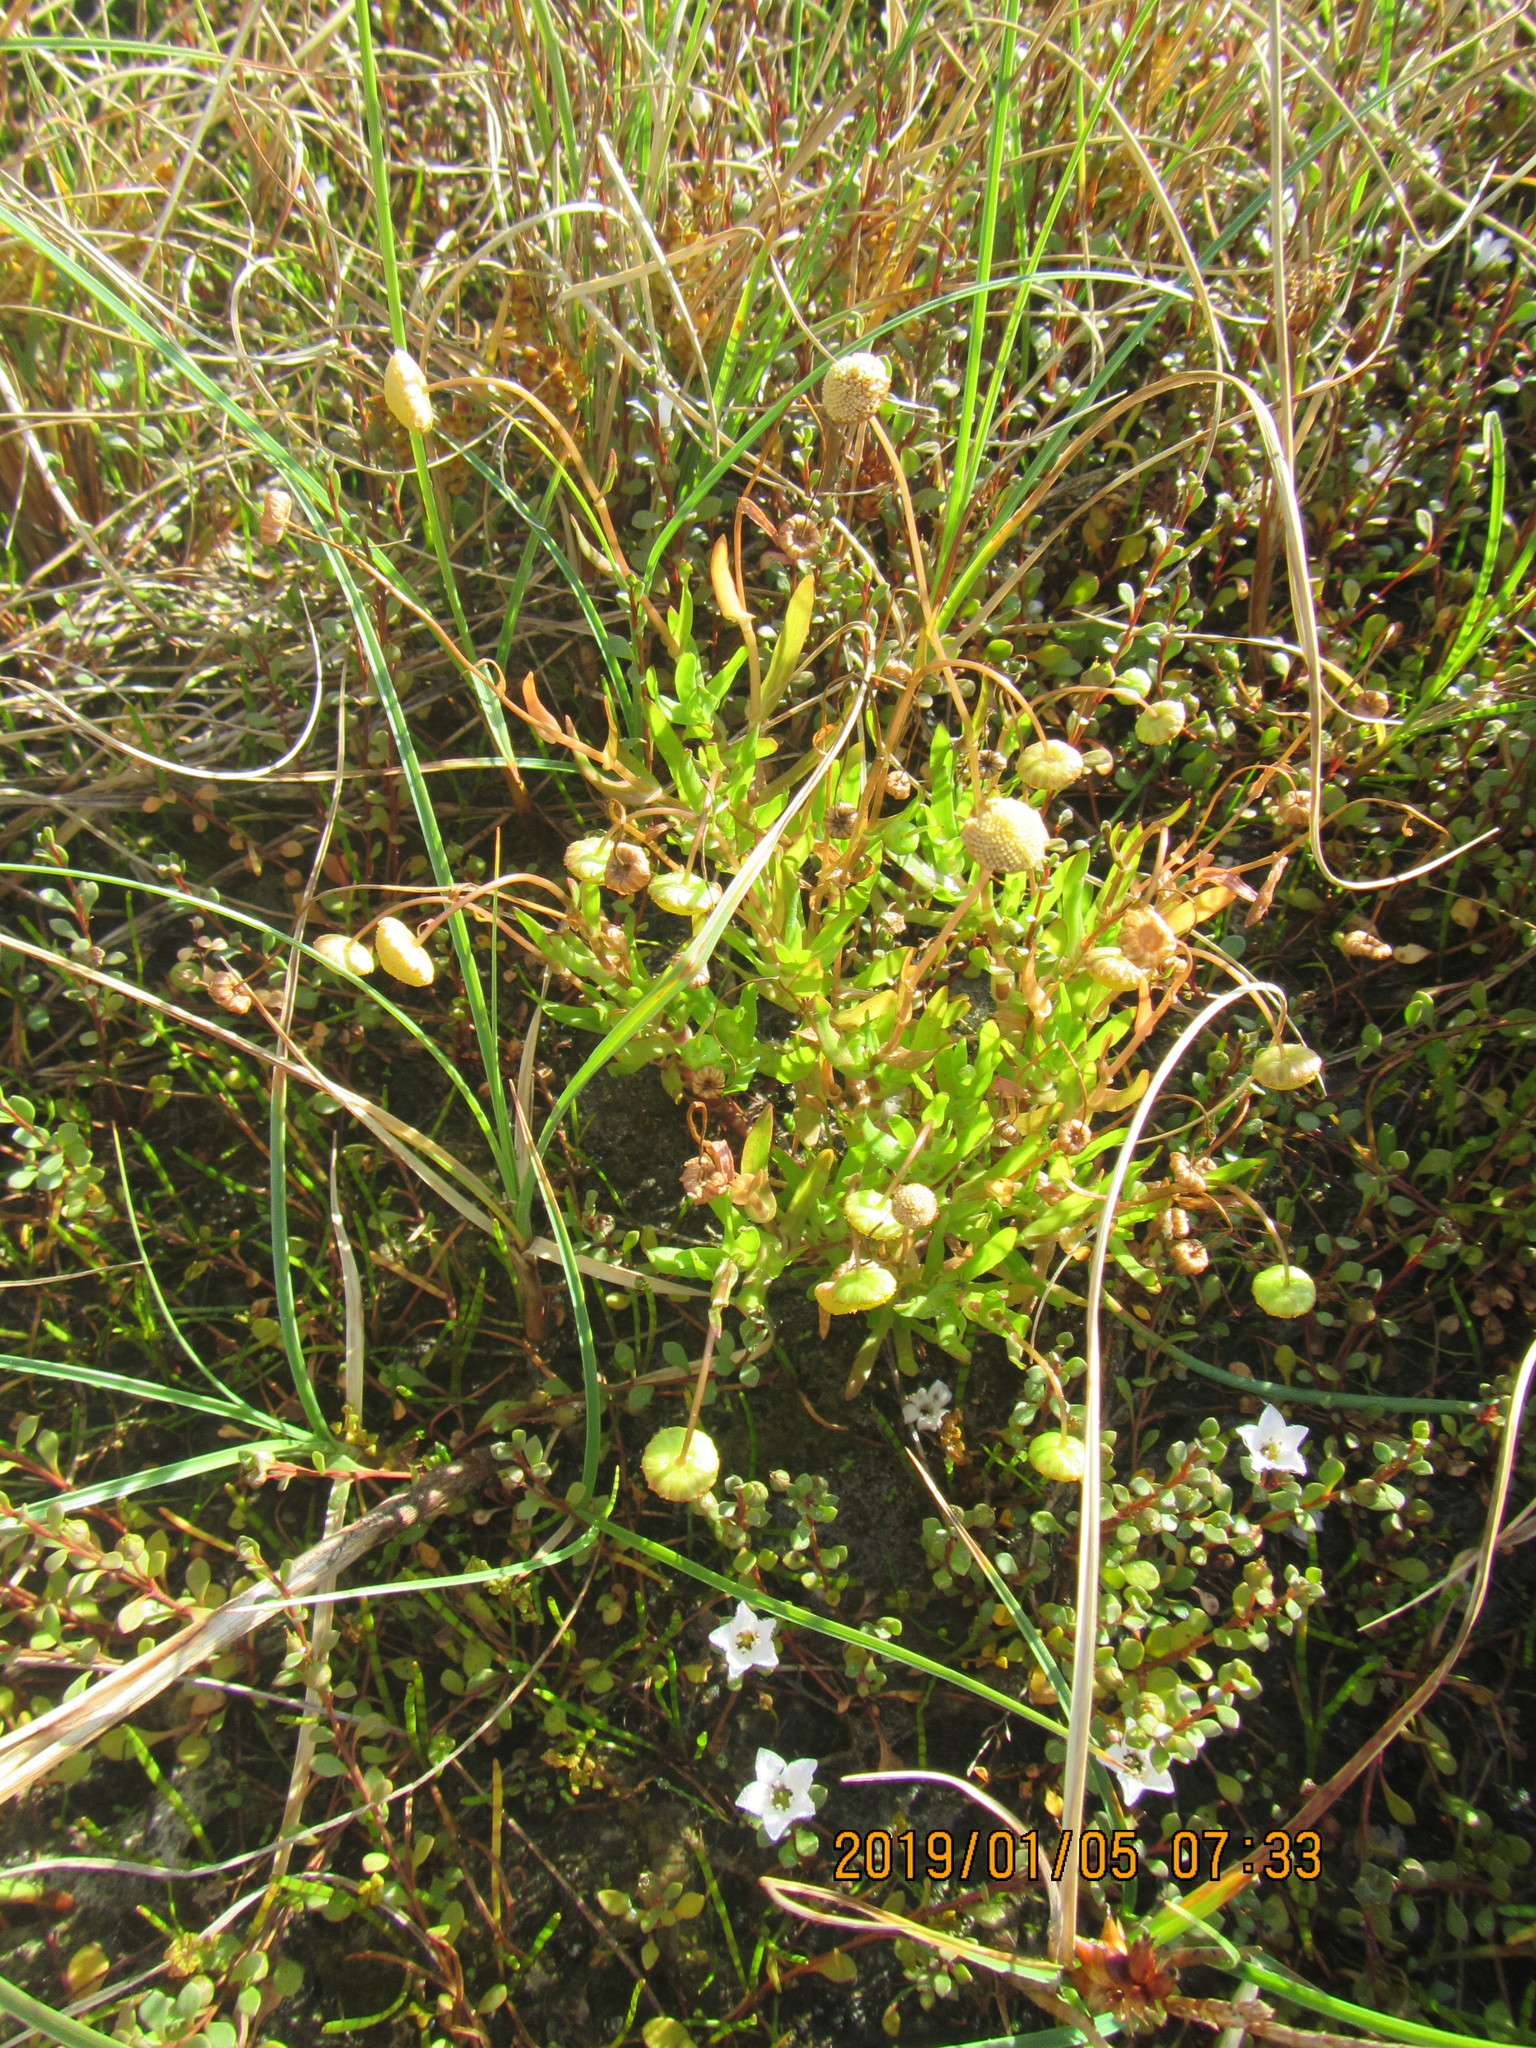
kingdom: Plantae
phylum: Tracheophyta
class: Magnoliopsida
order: Asterales
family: Asteraceae
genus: Cotula
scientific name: Cotula coronopifolia
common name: Buttonweed
